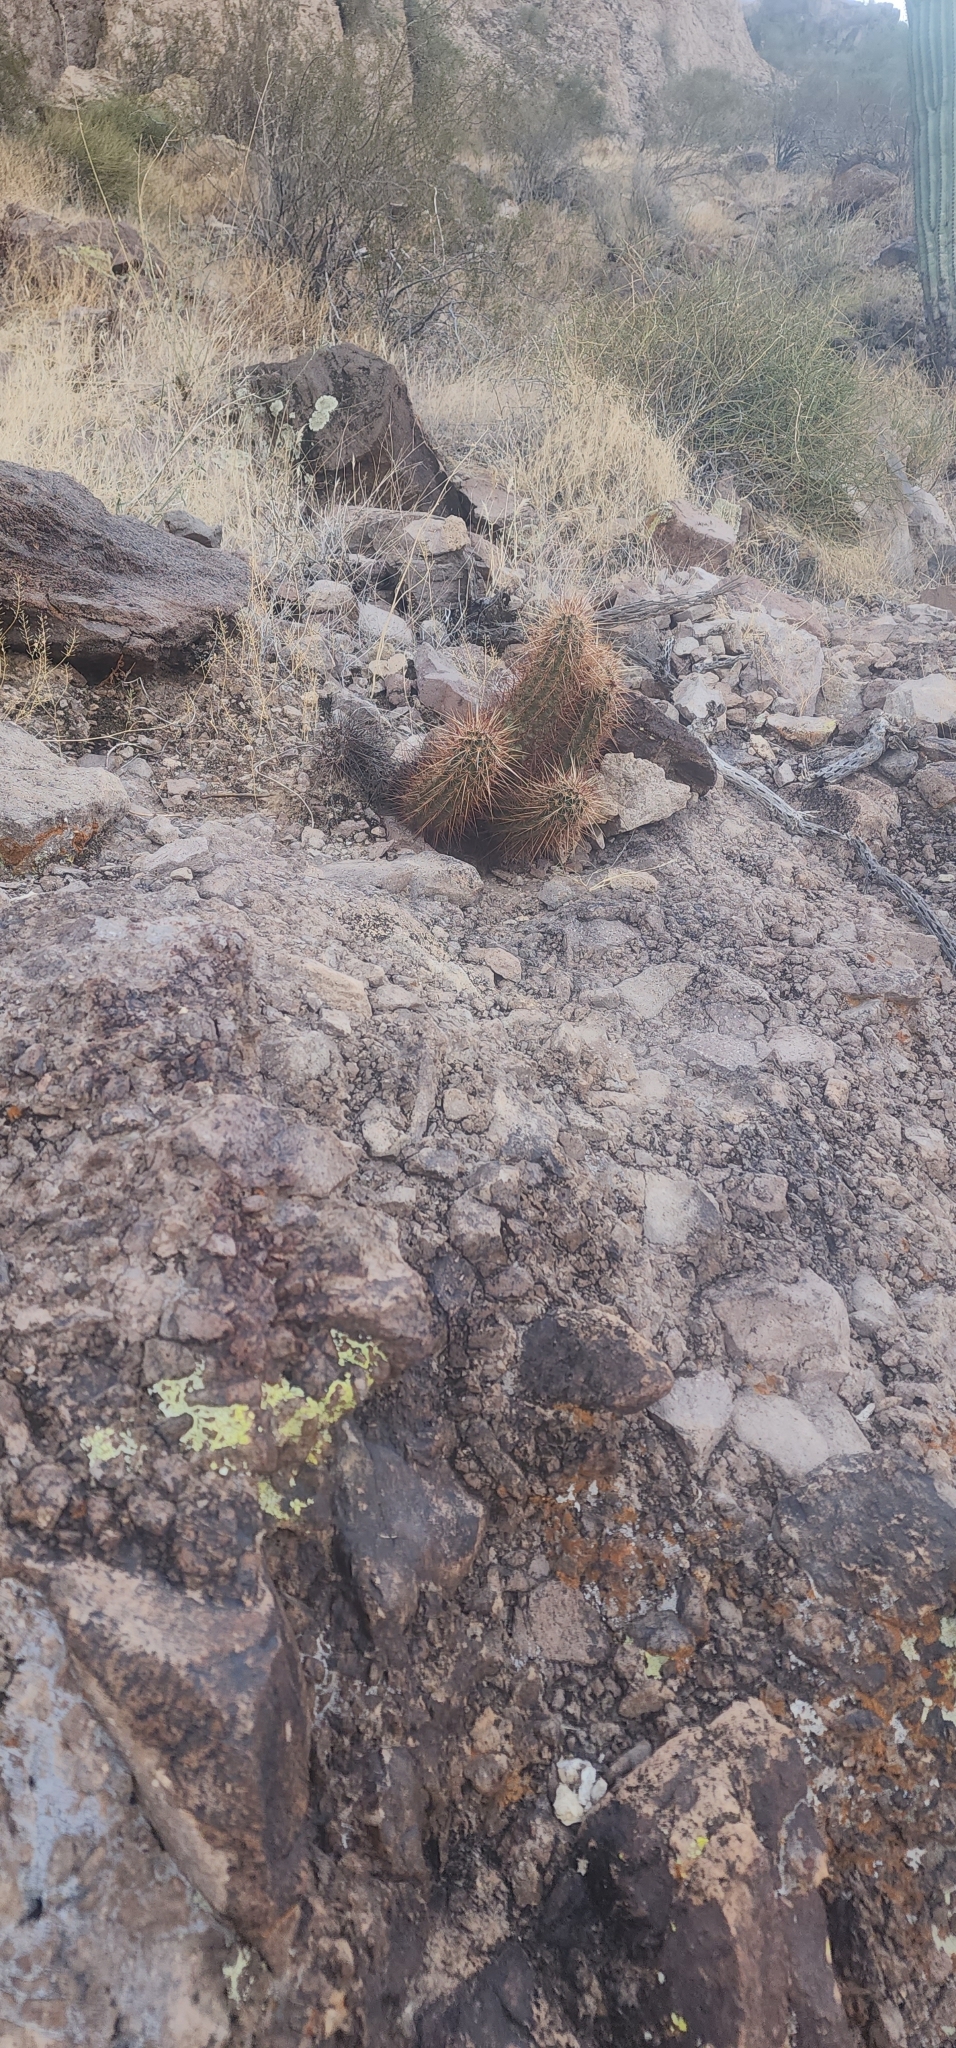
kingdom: Plantae
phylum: Tracheophyta
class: Magnoliopsida
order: Caryophyllales
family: Cactaceae
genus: Echinocereus
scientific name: Echinocereus engelmannii
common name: Engelmann's hedgehog cactus
